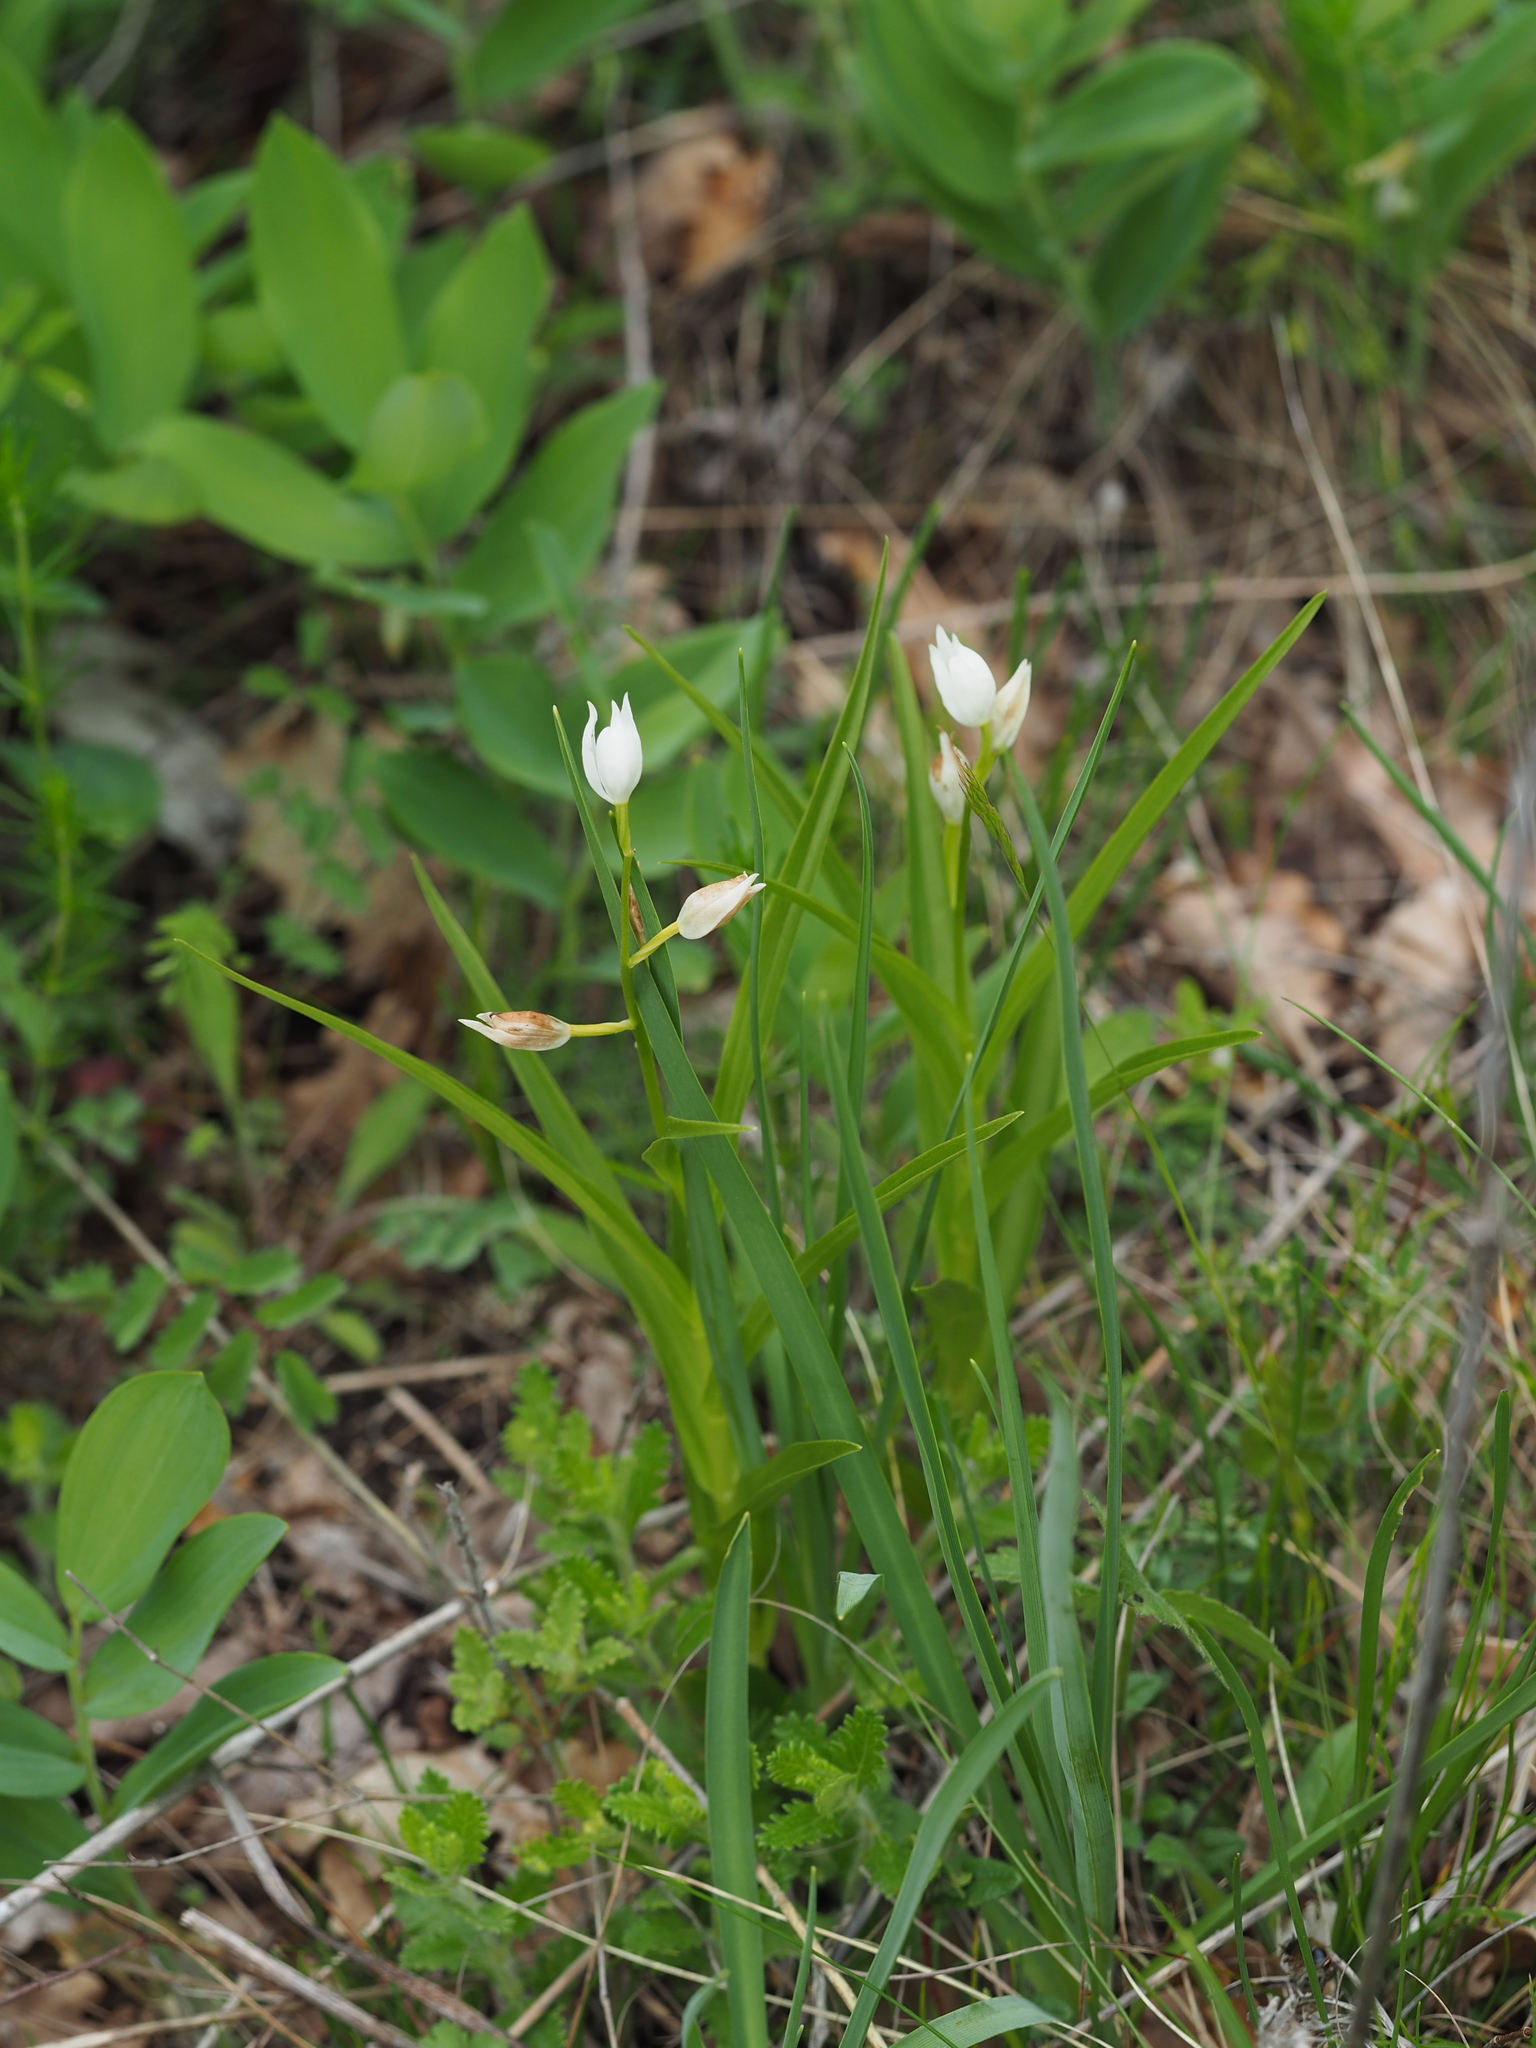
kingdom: Plantae
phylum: Tracheophyta
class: Liliopsida
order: Asparagales
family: Orchidaceae
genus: Cephalanthera
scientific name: Cephalanthera longifolia
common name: Narrow-leaved helleborine
